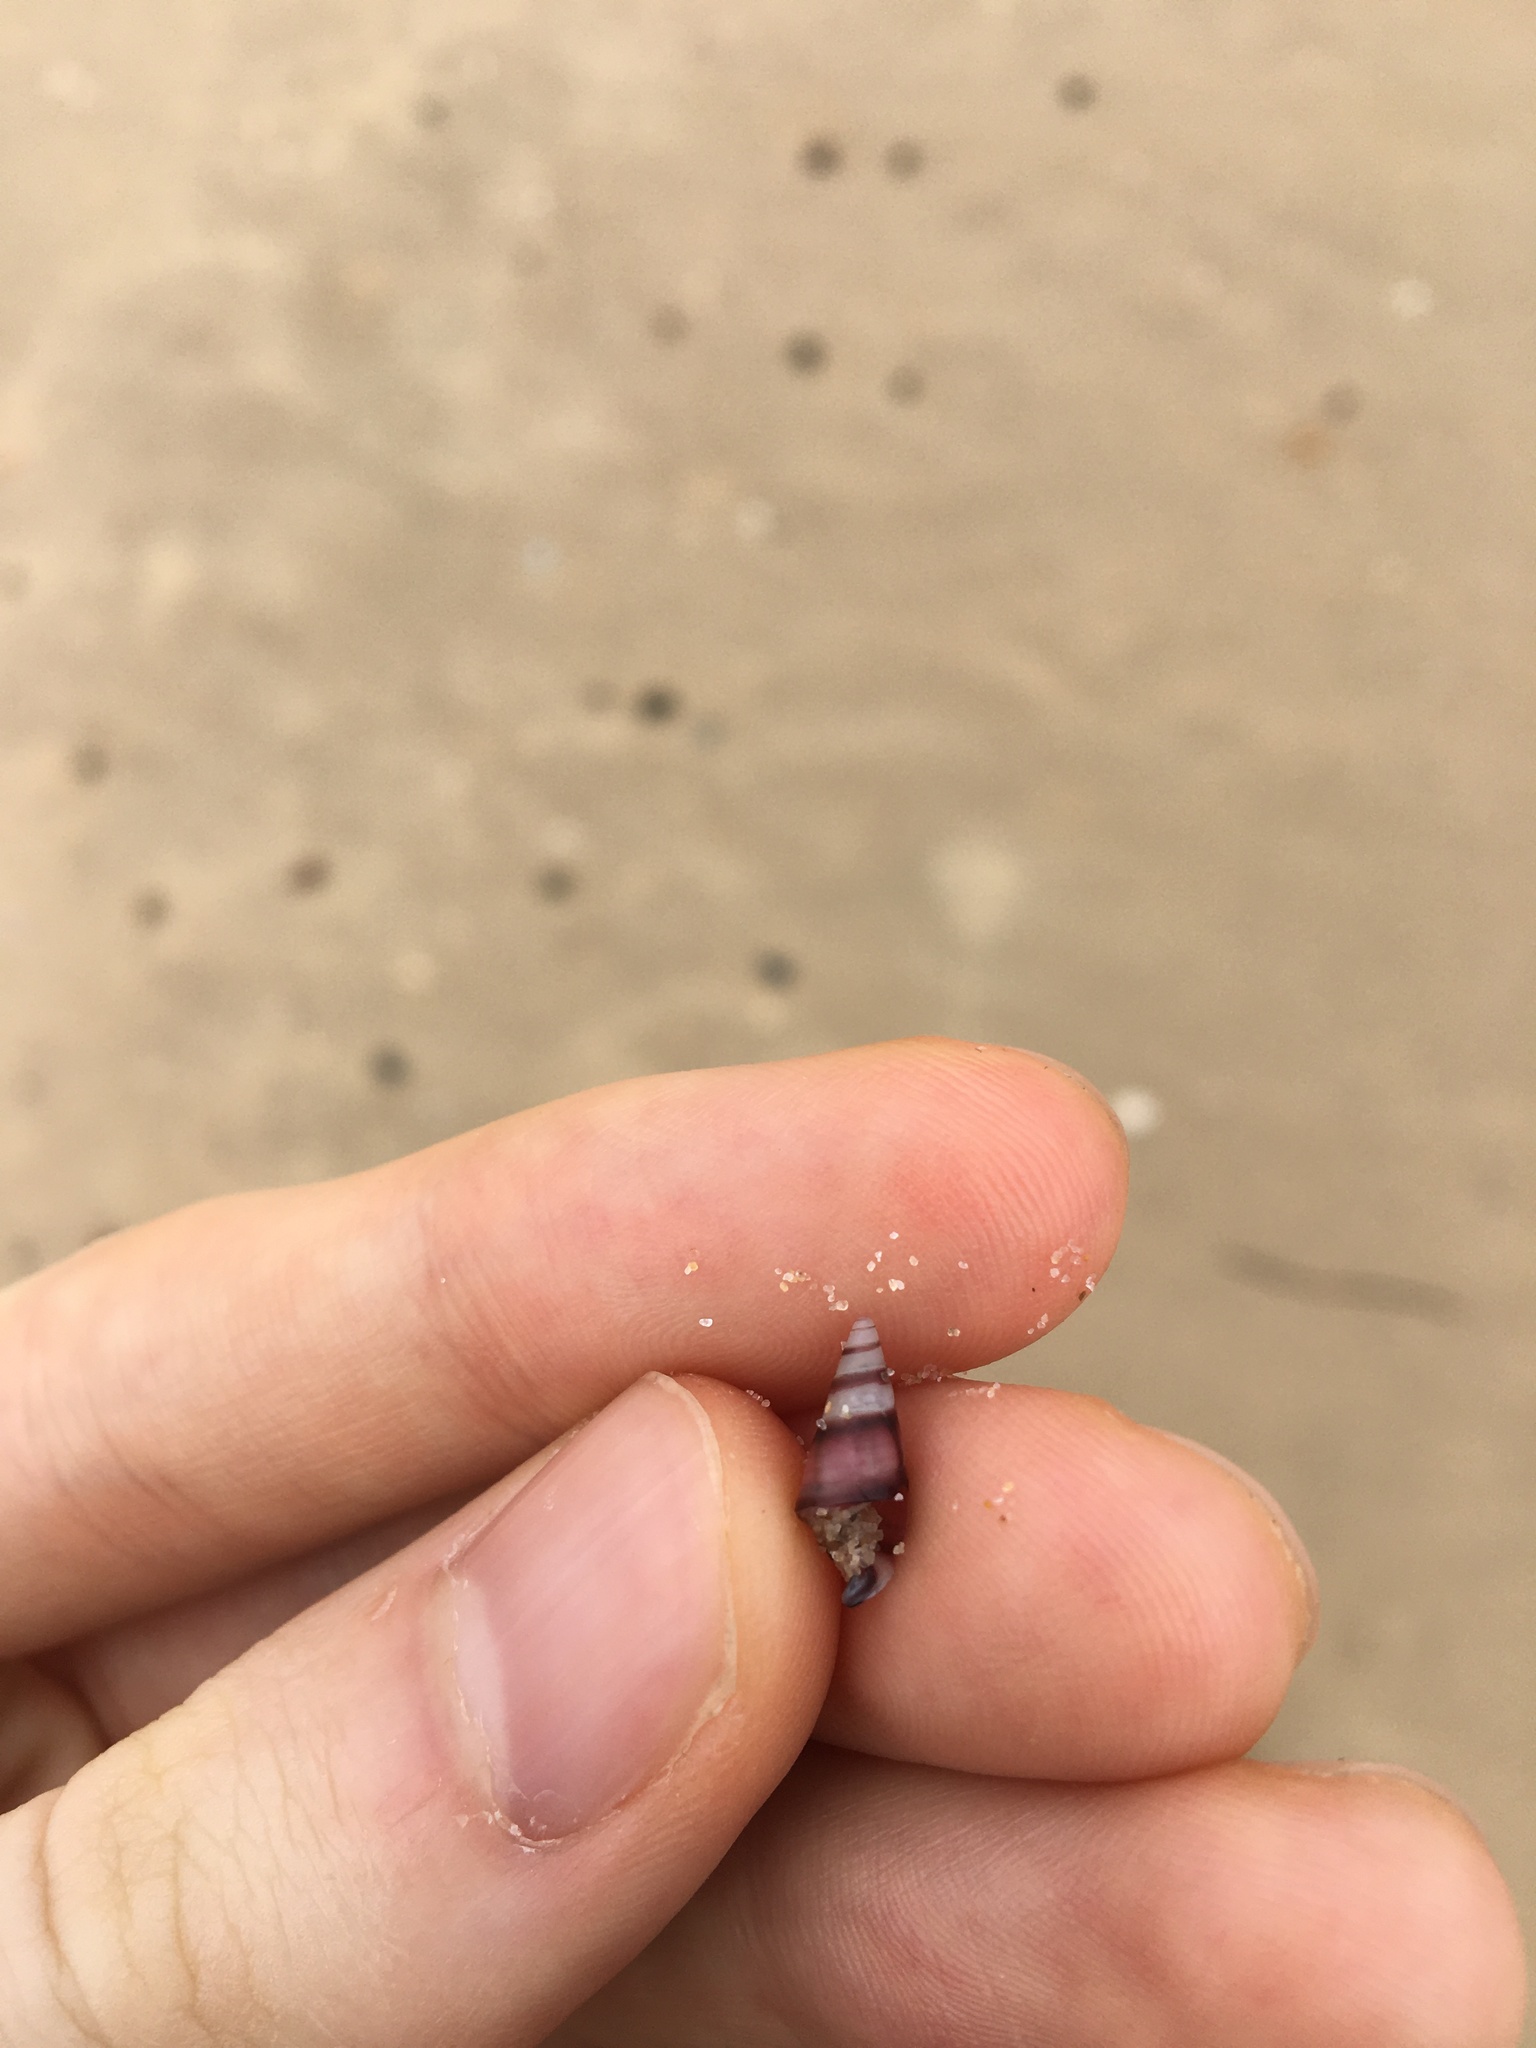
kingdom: Animalia
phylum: Mollusca
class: Gastropoda
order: Trochida
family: Trochidae
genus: Bankivia
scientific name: Bankivia fasciata
